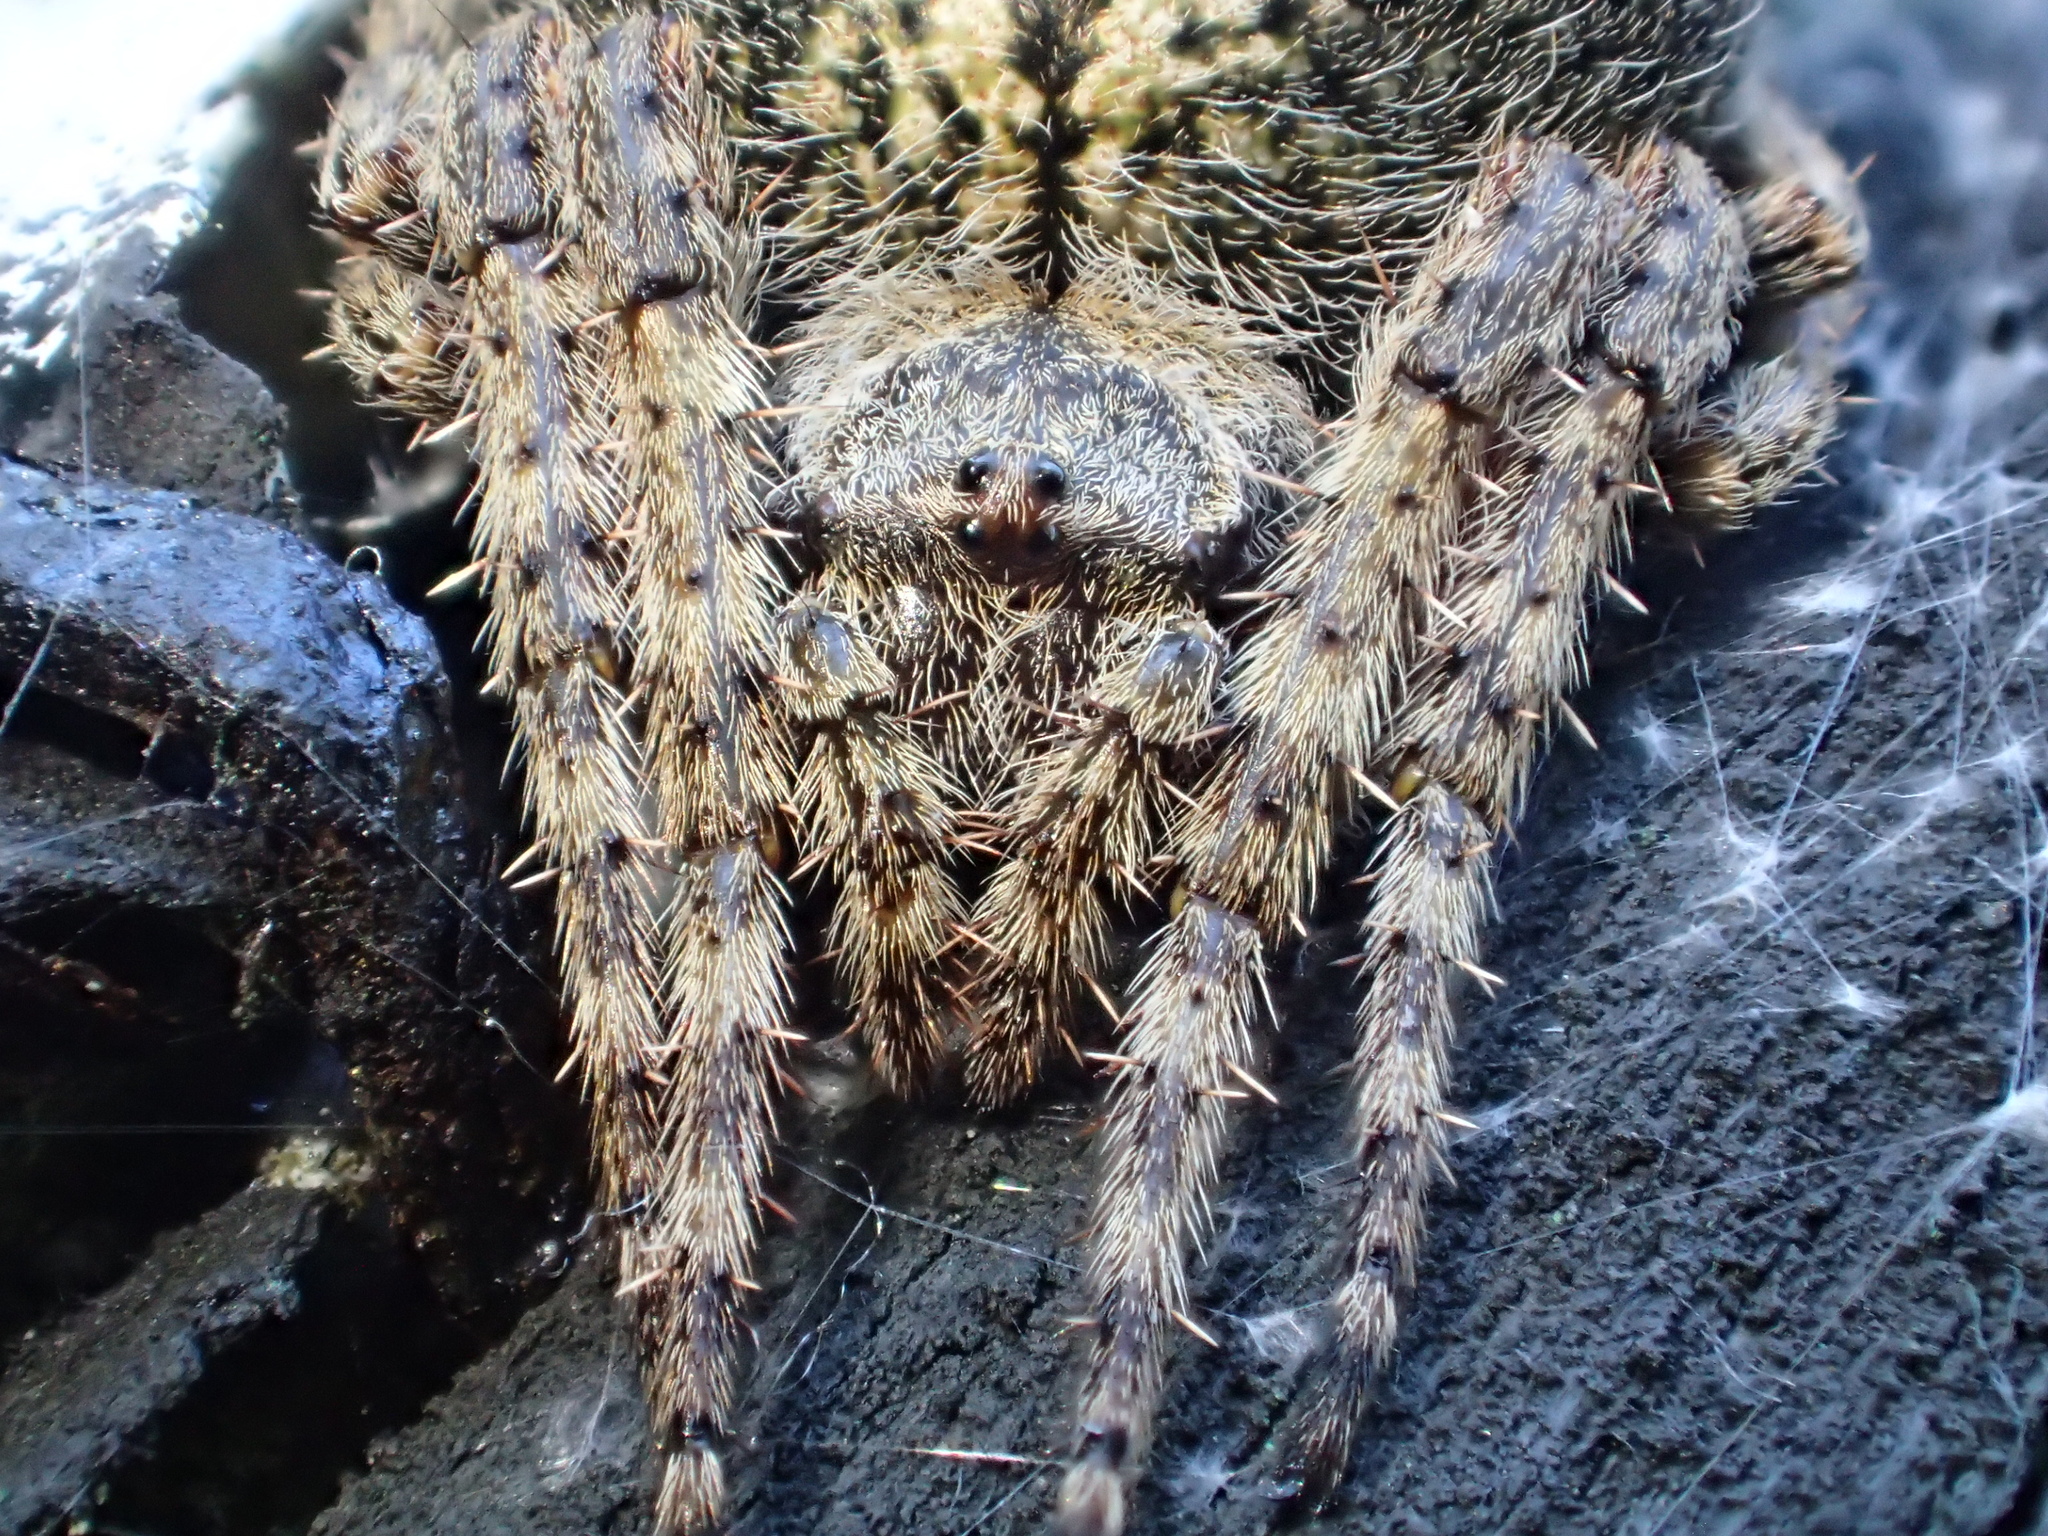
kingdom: Animalia
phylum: Arthropoda
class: Arachnida
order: Araneae
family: Araneidae
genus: Eriophora
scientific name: Eriophora pustulosa
